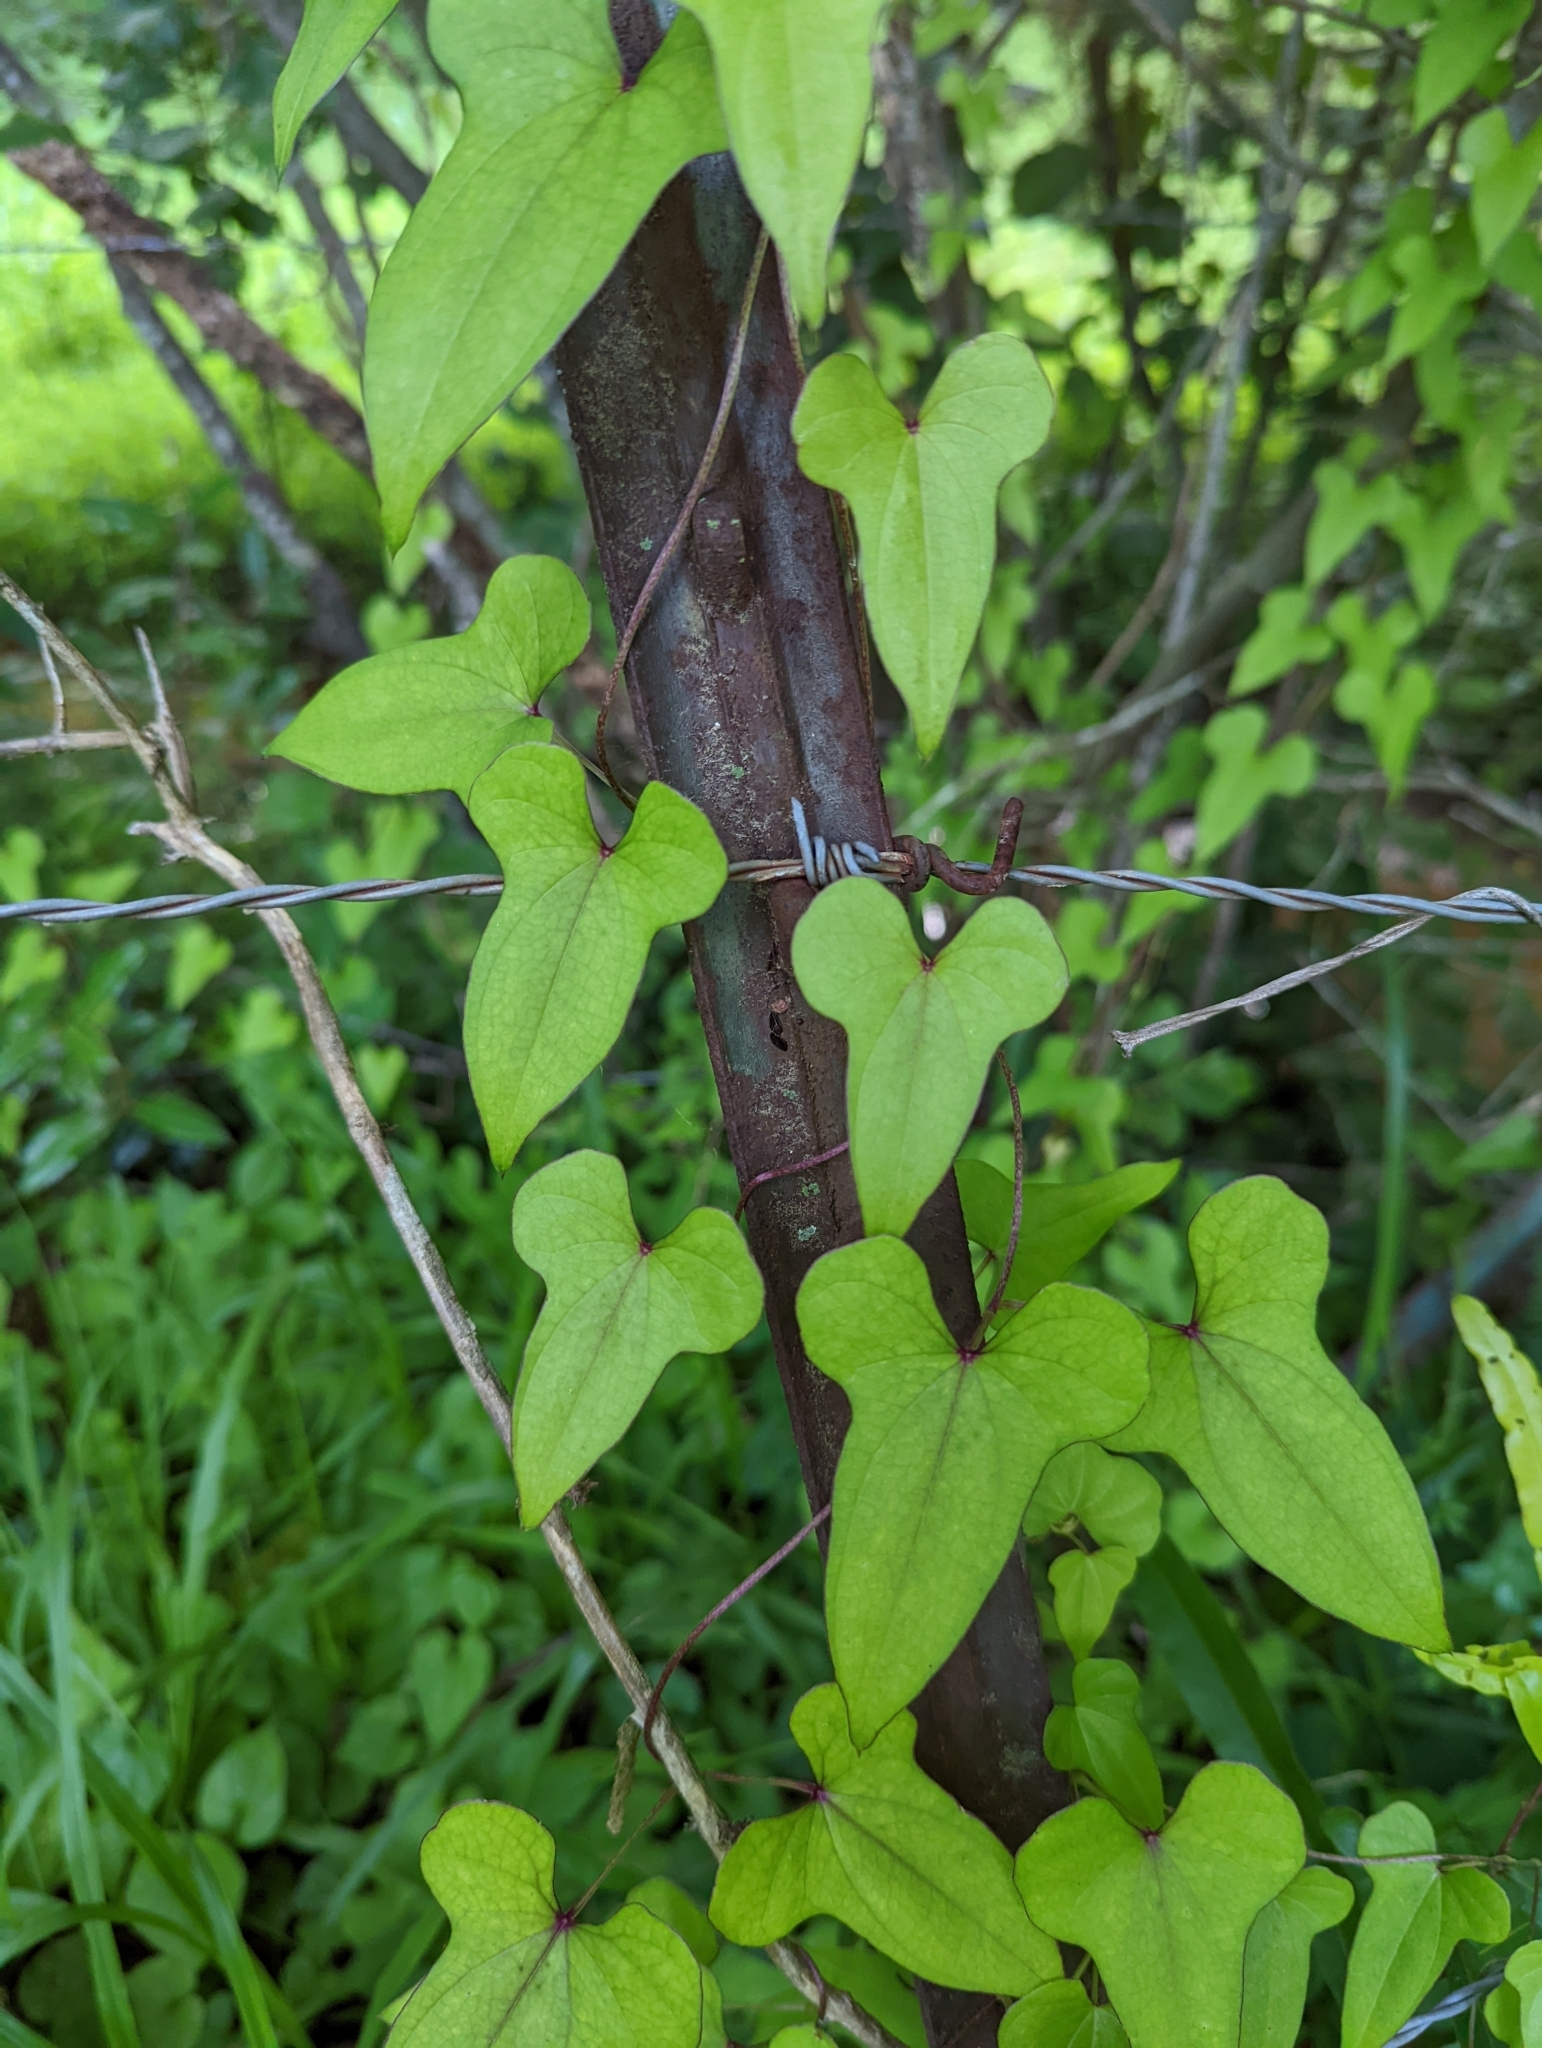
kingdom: Plantae
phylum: Tracheophyta
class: Liliopsida
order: Dioscoreales
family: Dioscoreaceae
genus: Dioscorea
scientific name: Dioscorea polystachya
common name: Chinese yam
